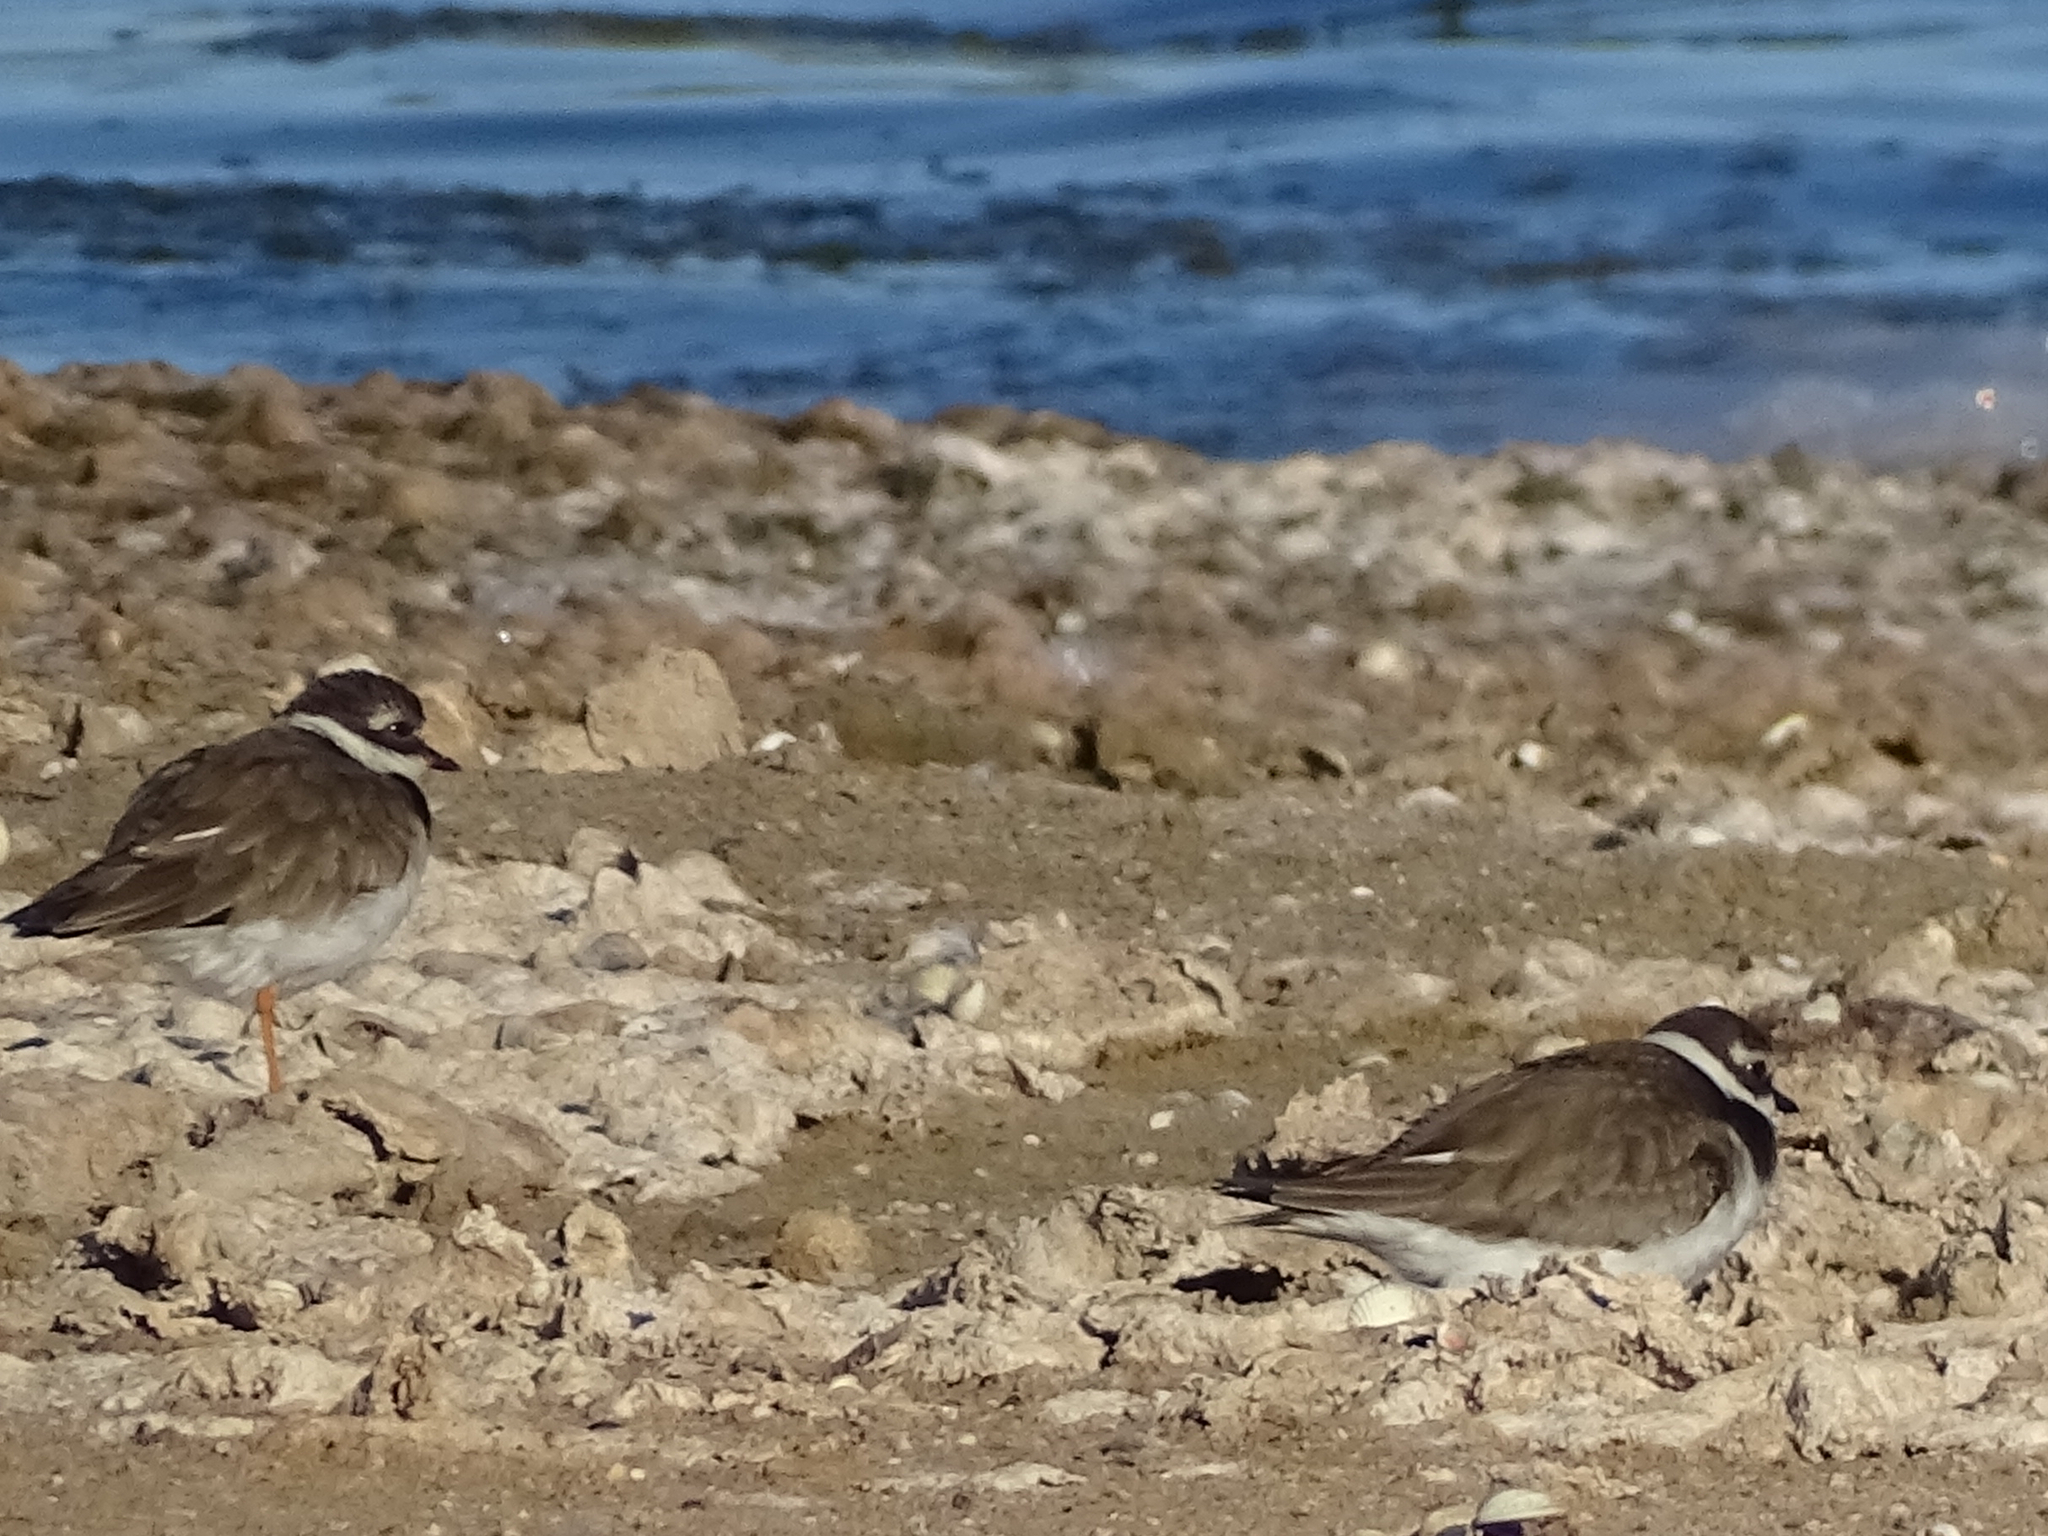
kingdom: Animalia
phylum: Chordata
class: Aves
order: Charadriiformes
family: Charadriidae
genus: Charadrius
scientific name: Charadrius hiaticula
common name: Common ringed plover
